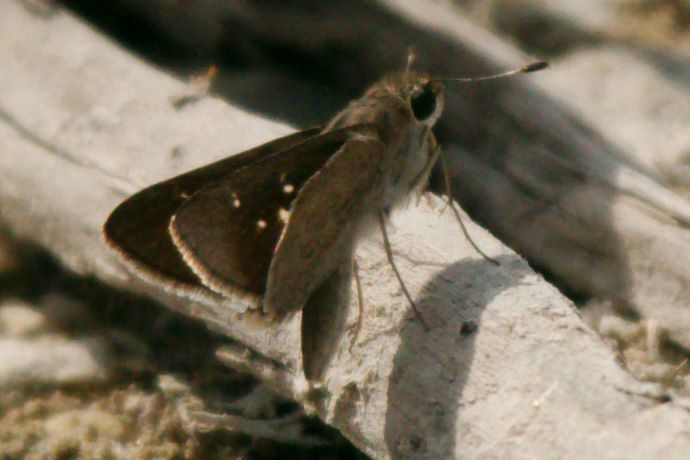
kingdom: Animalia
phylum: Arthropoda
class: Insecta
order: Lepidoptera
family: Hesperiidae
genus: Lerodea
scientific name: Lerodea eufala
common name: Eufala skipper
